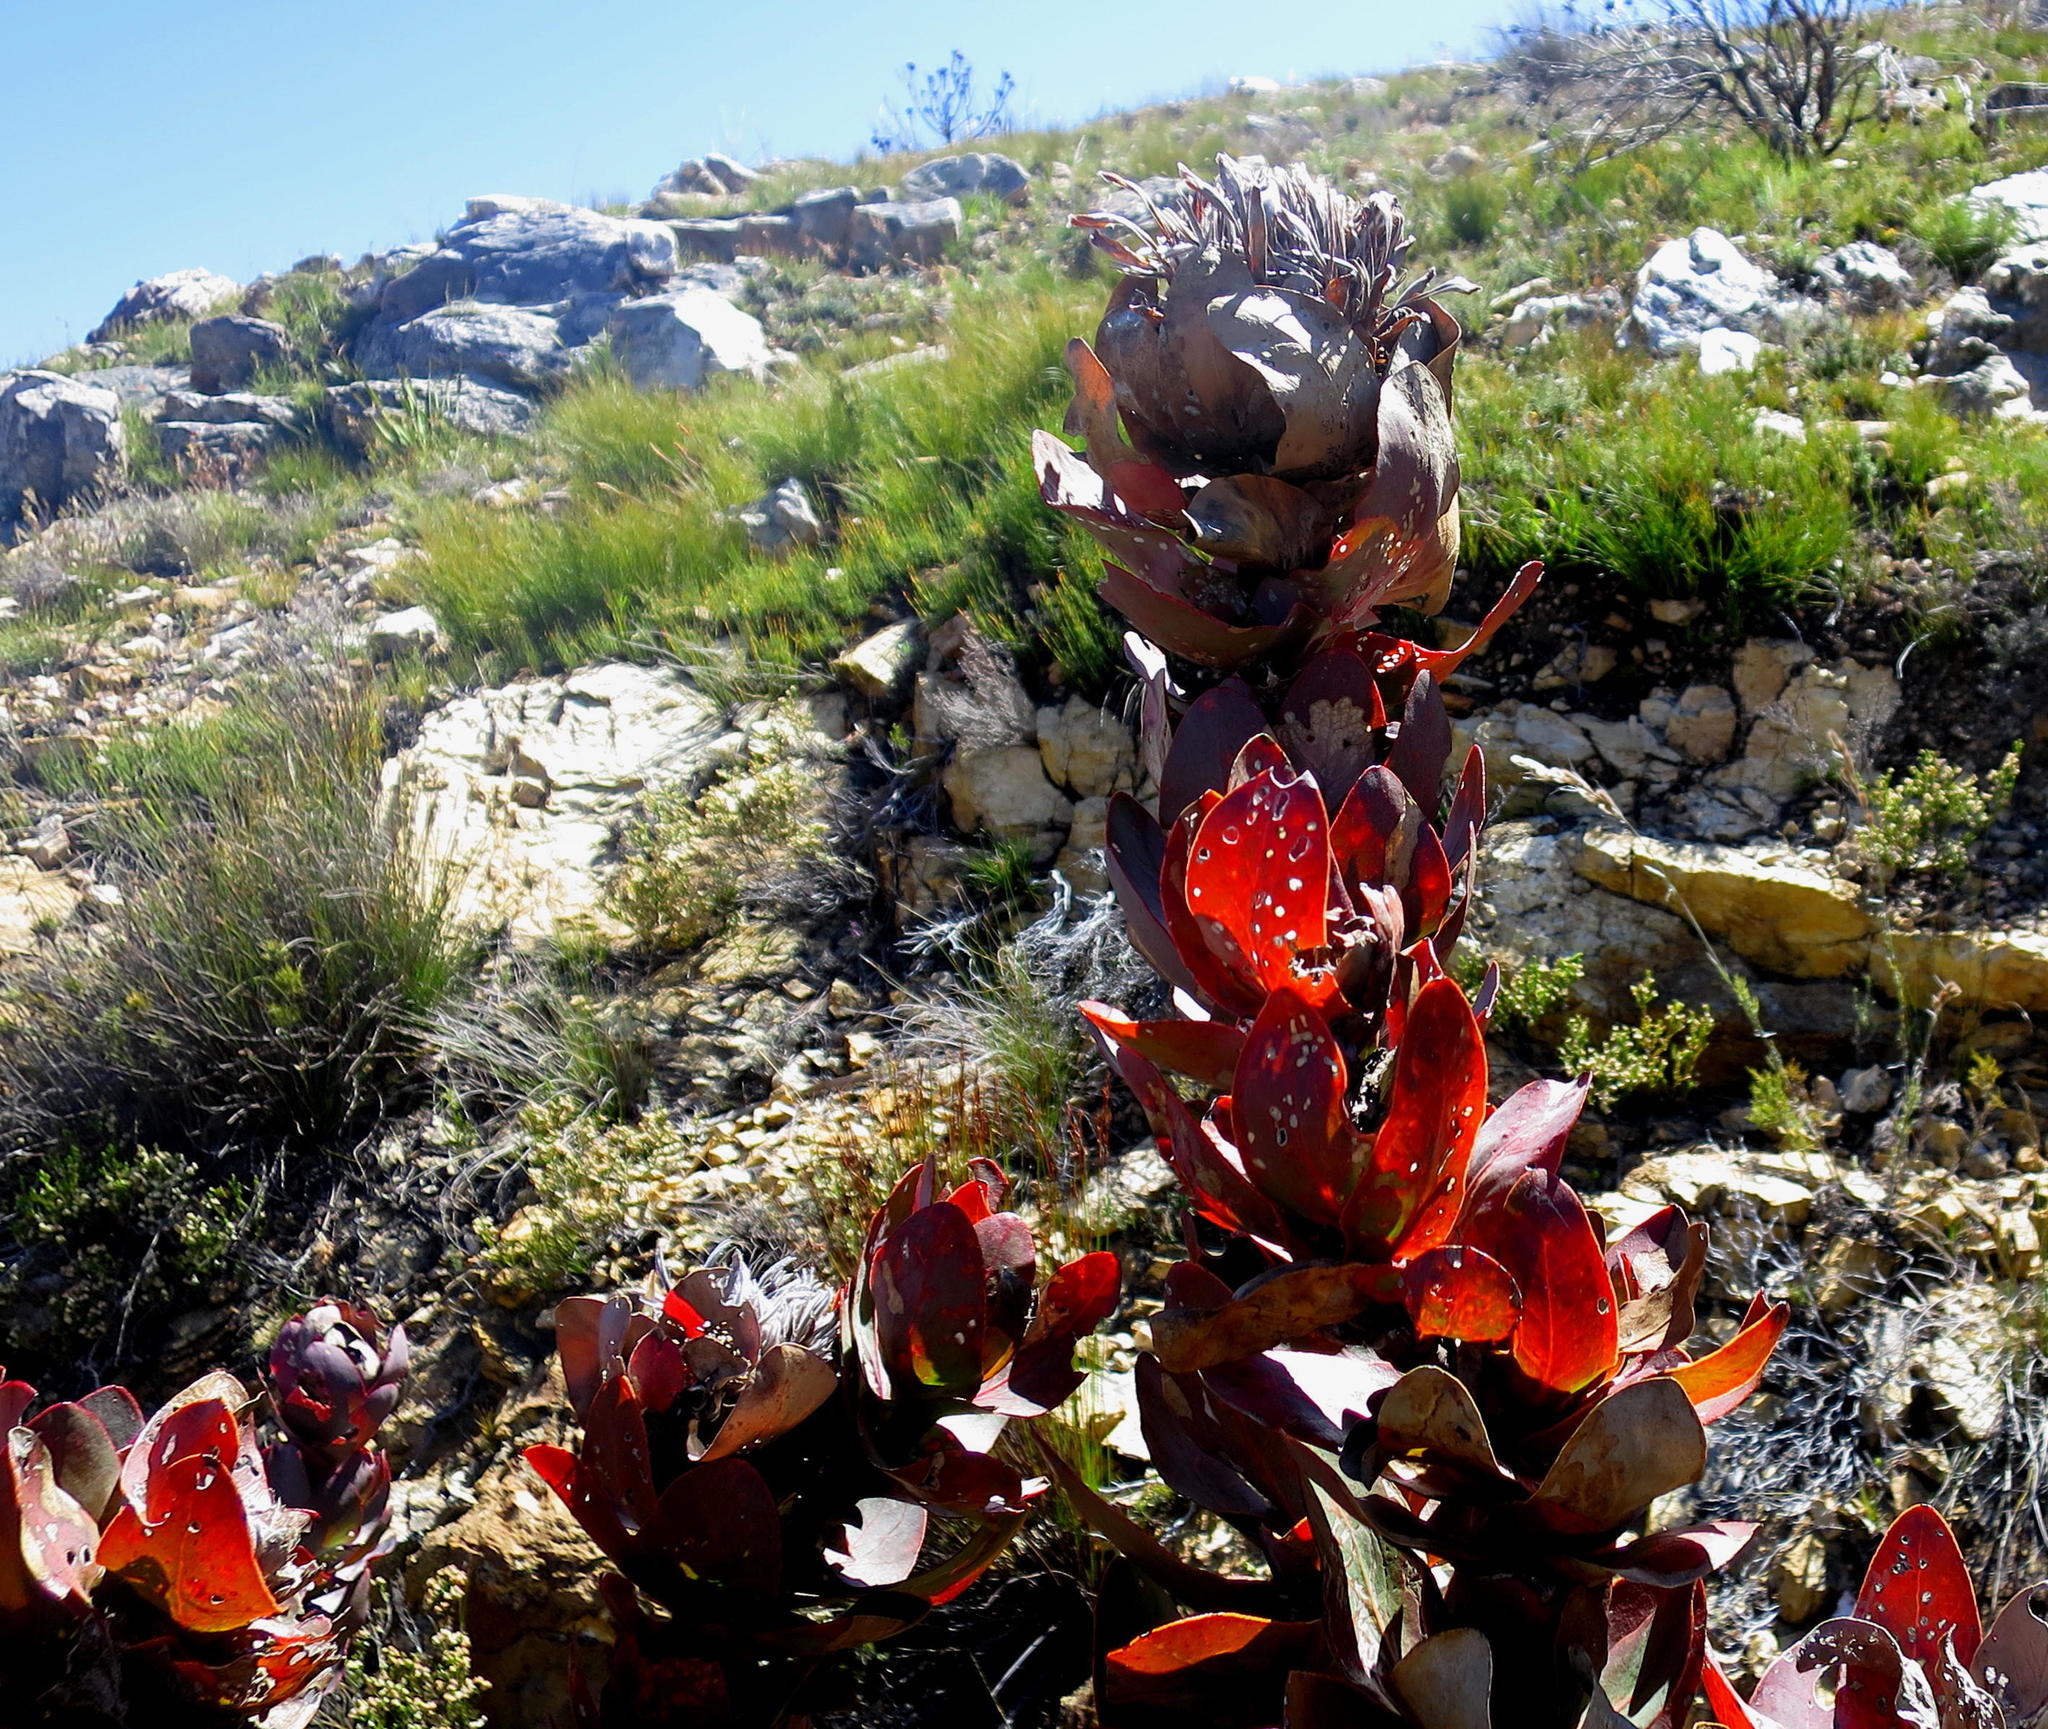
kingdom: Plantae
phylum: Tracheophyta
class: Magnoliopsida
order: Proteales
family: Proteaceae
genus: Protea
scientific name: Protea eximia
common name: Broad-leaved sugarbush
